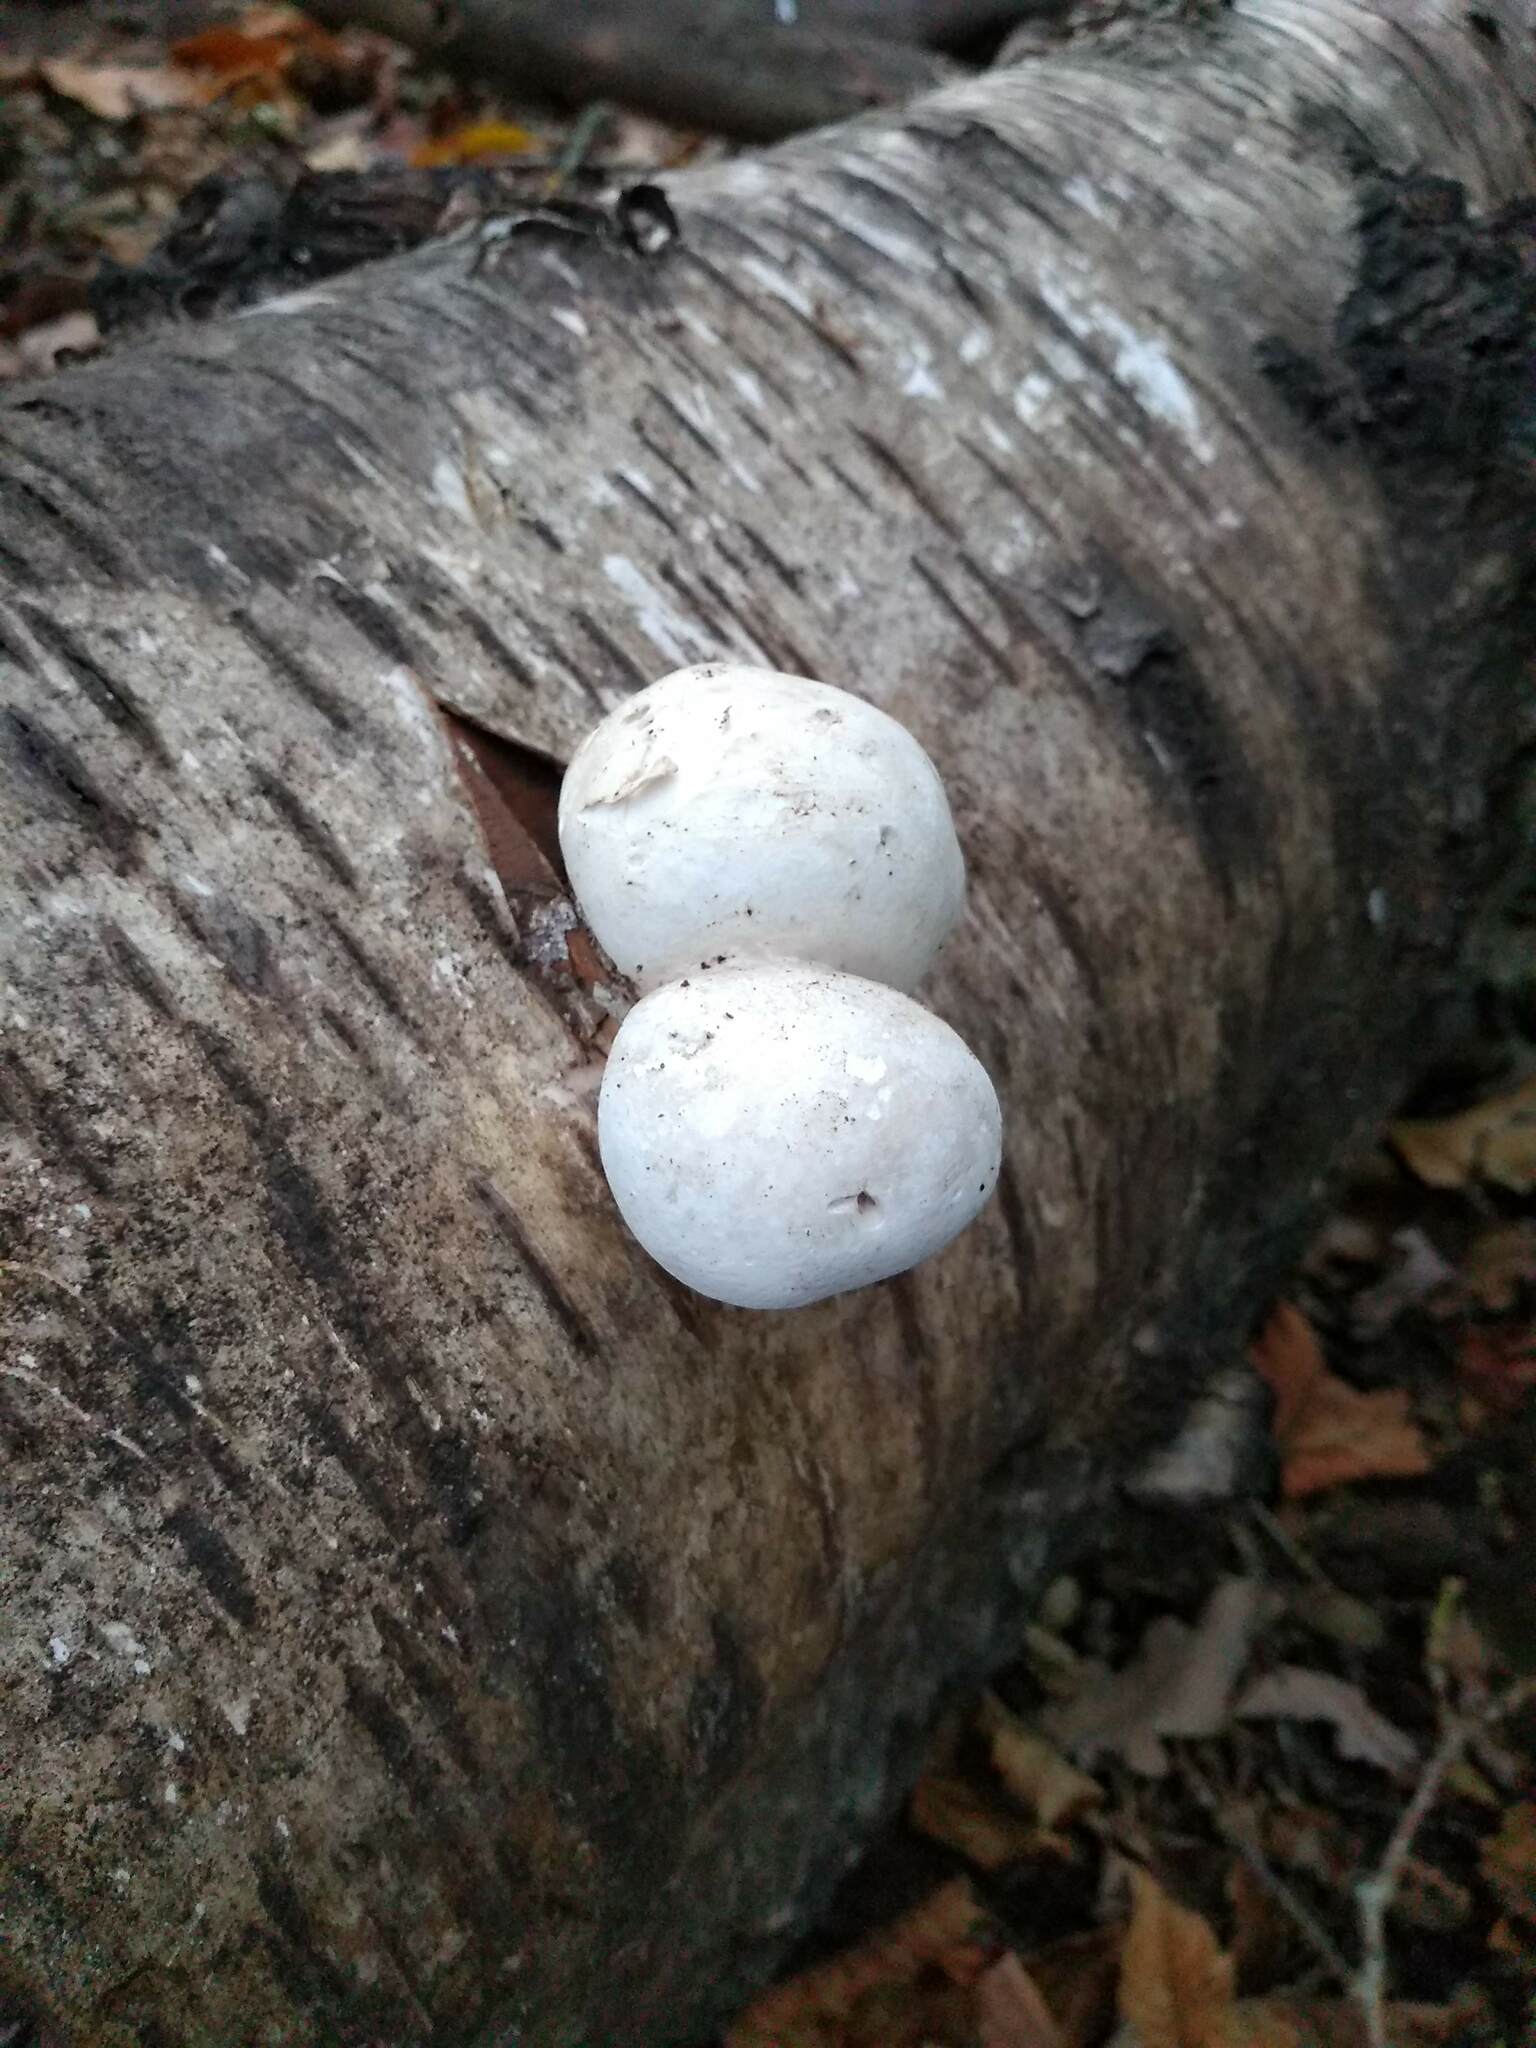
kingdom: Fungi
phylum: Basidiomycota
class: Agaricomycetes
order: Polyporales
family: Fomitopsidaceae
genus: Fomitopsis
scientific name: Fomitopsis betulina
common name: Birch polypore
